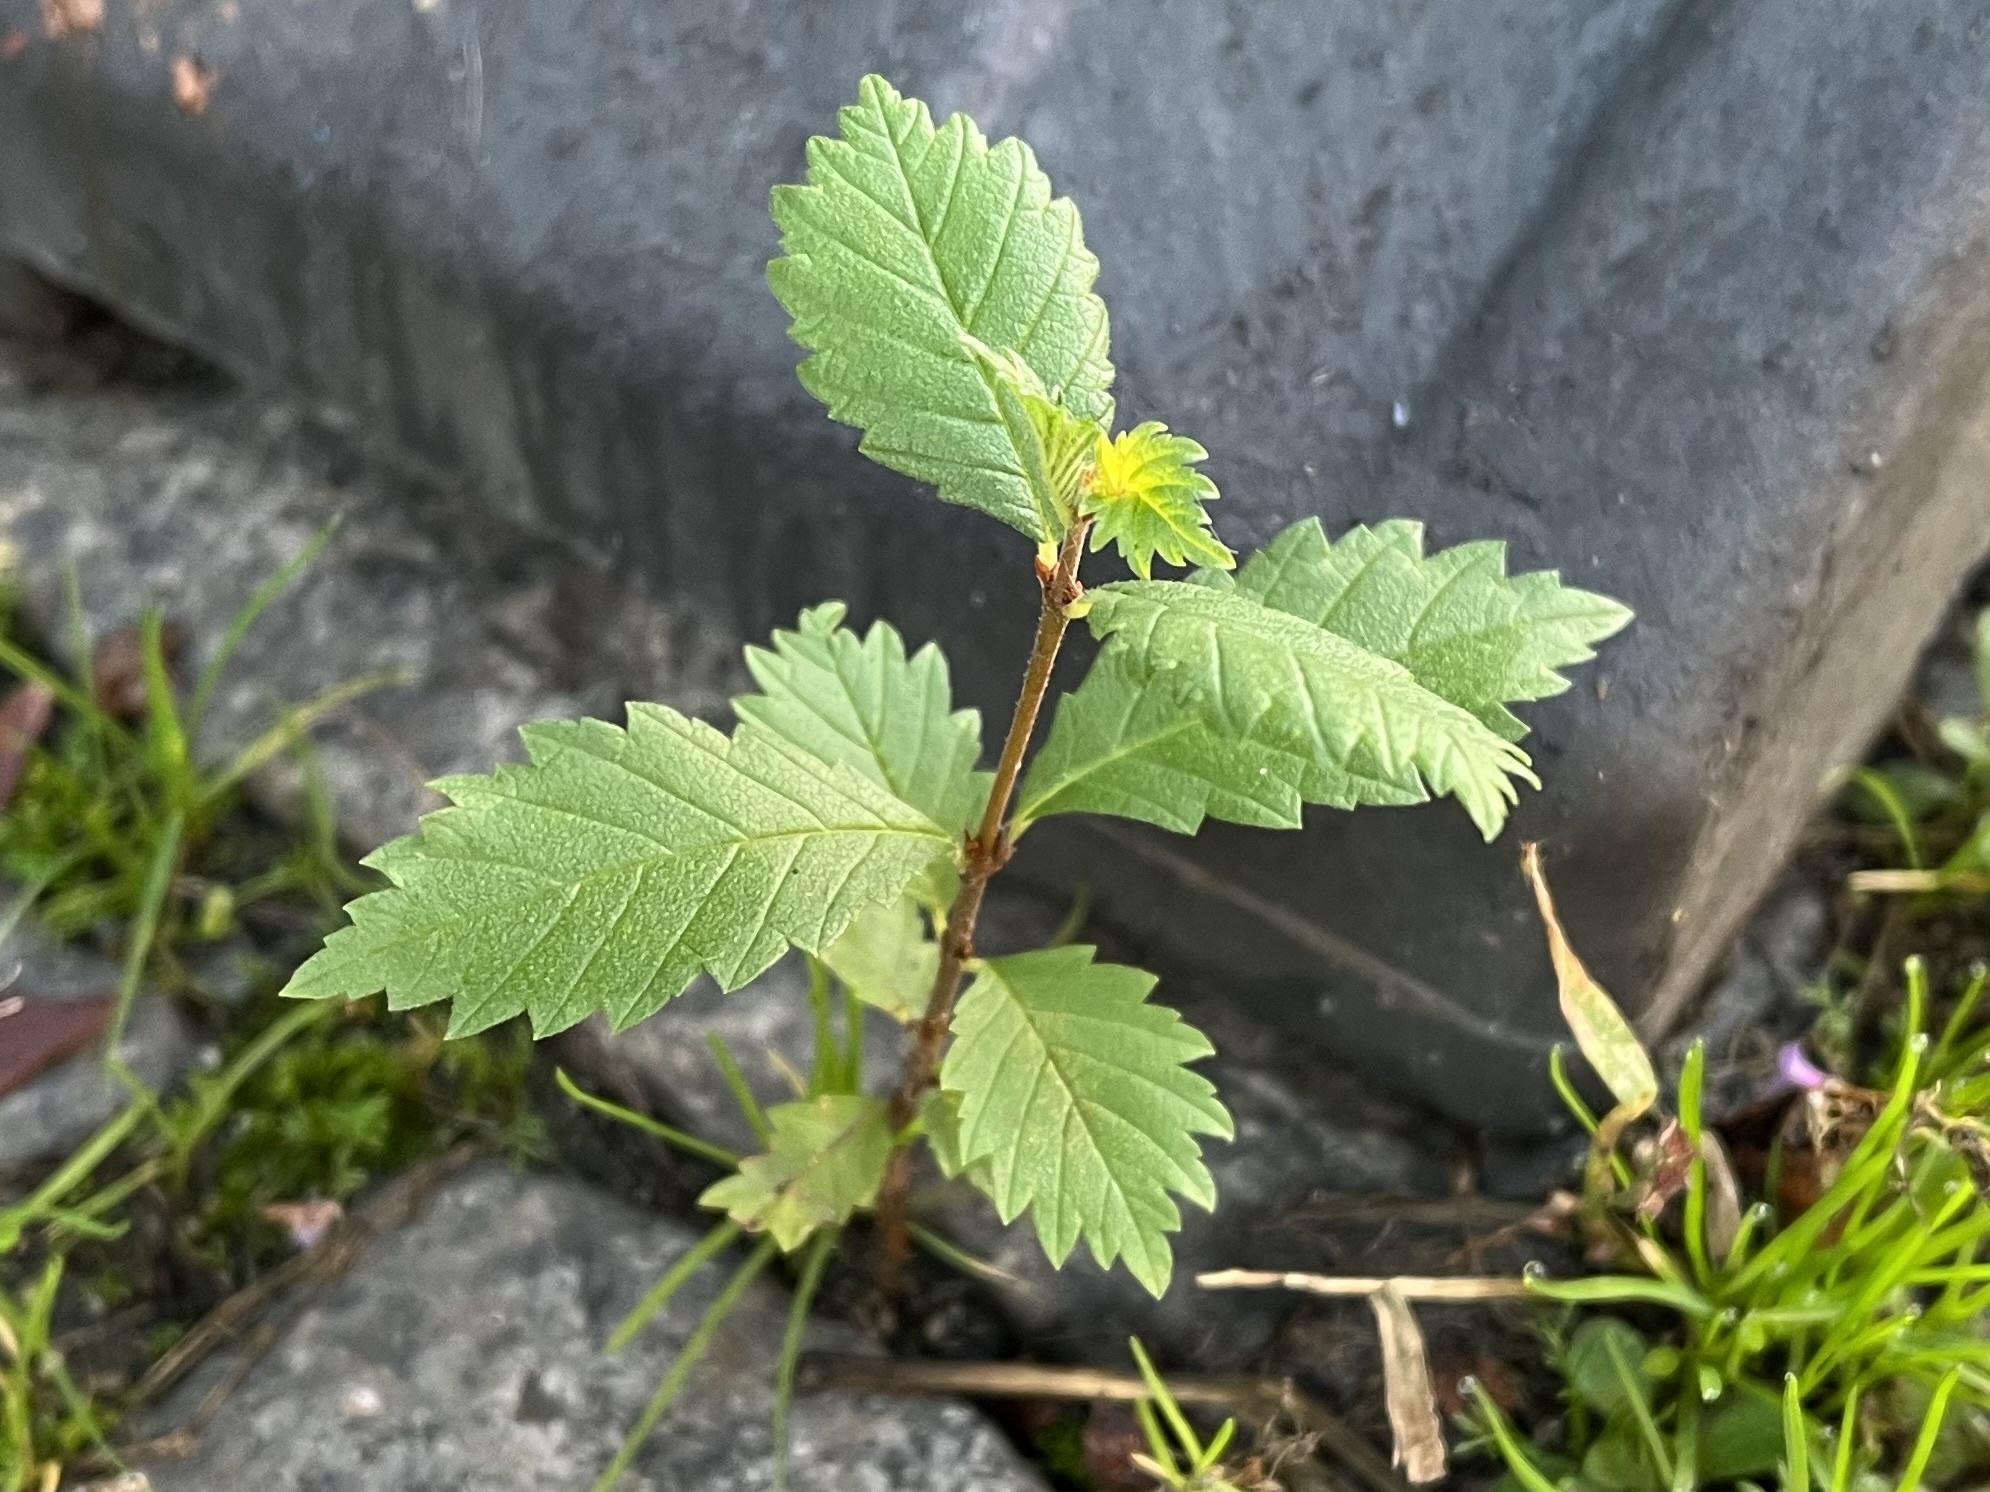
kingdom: Plantae
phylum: Tracheophyta
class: Magnoliopsida
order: Rosales
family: Ulmaceae
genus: Ulmus
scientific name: Ulmus minor
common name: Small-leaved elm
